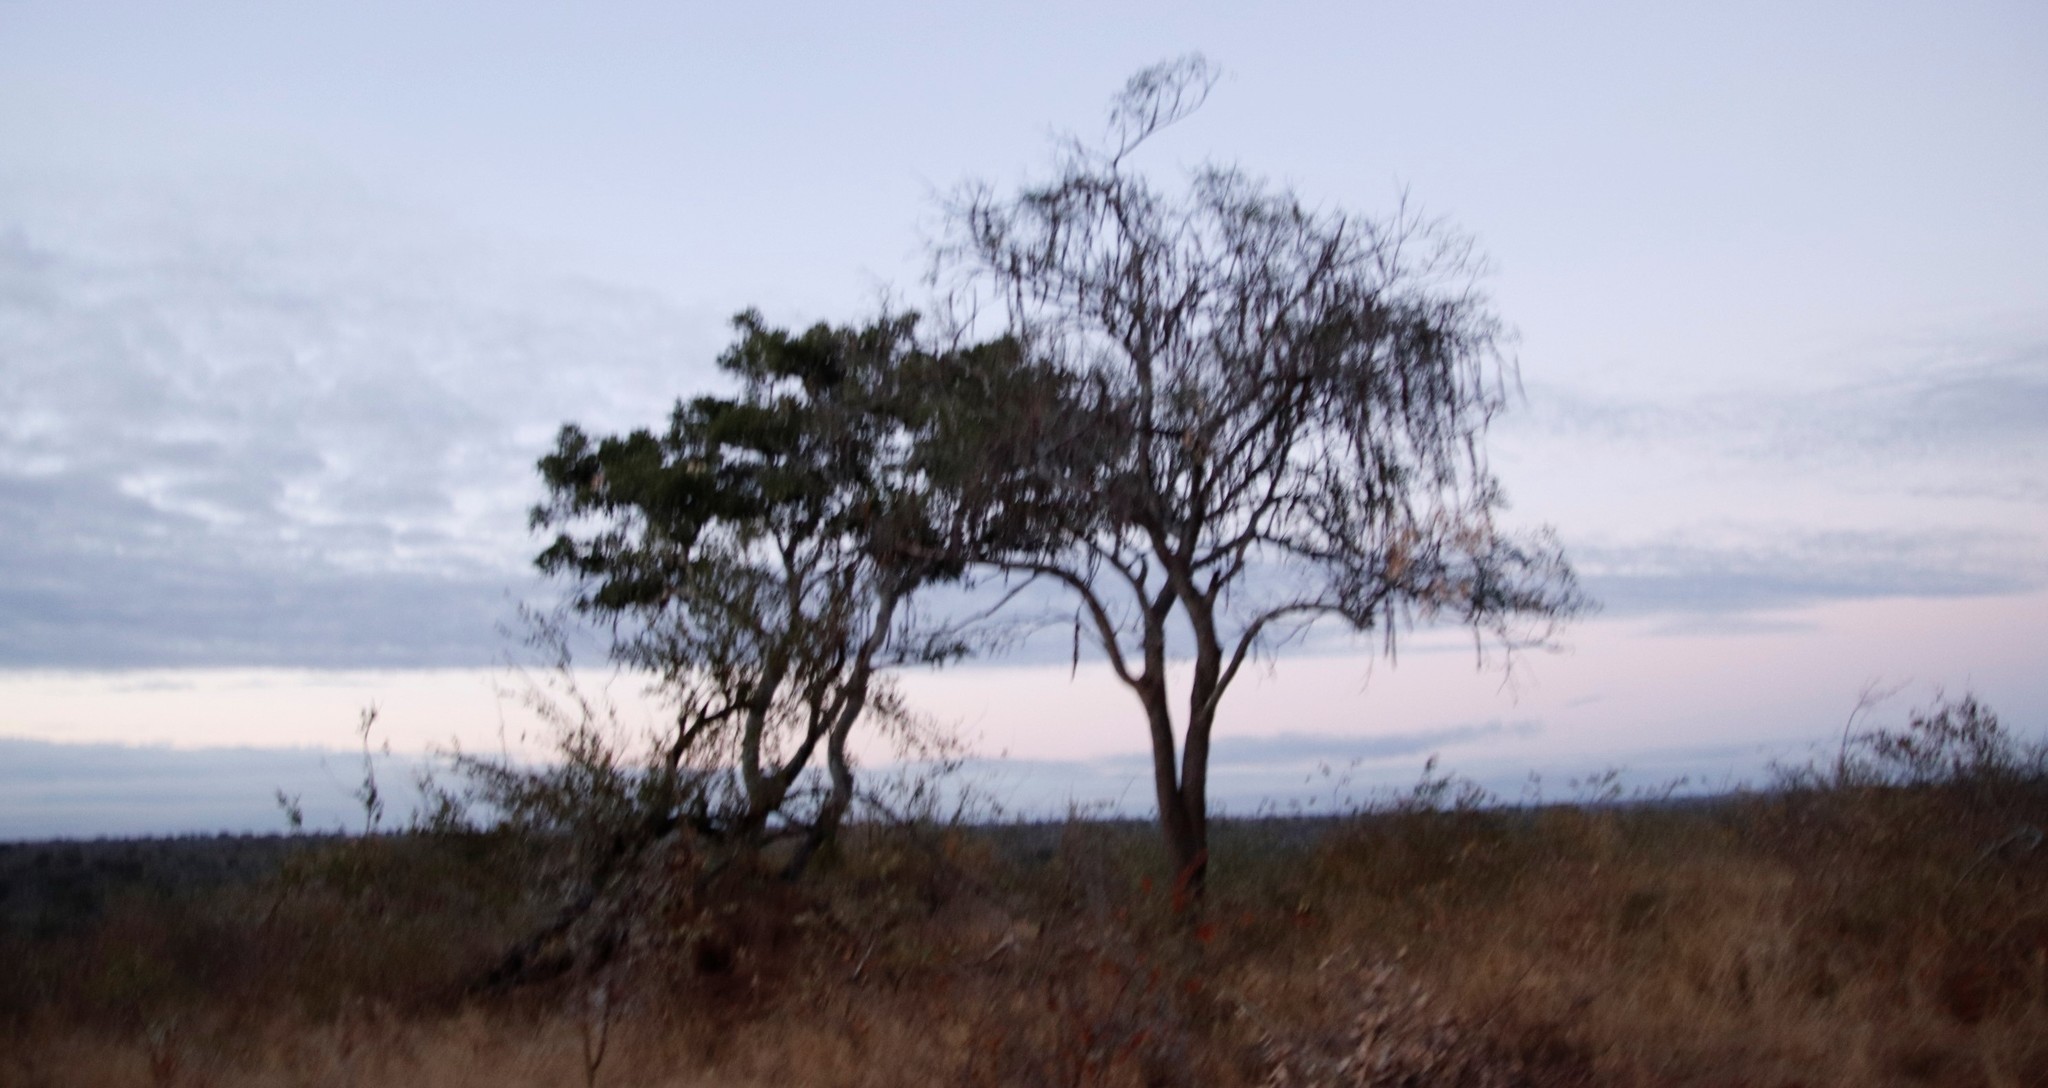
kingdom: Plantae
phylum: Tracheophyta
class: Magnoliopsida
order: Fabales
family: Fabaceae
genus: Cassia
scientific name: Cassia abbreviata
